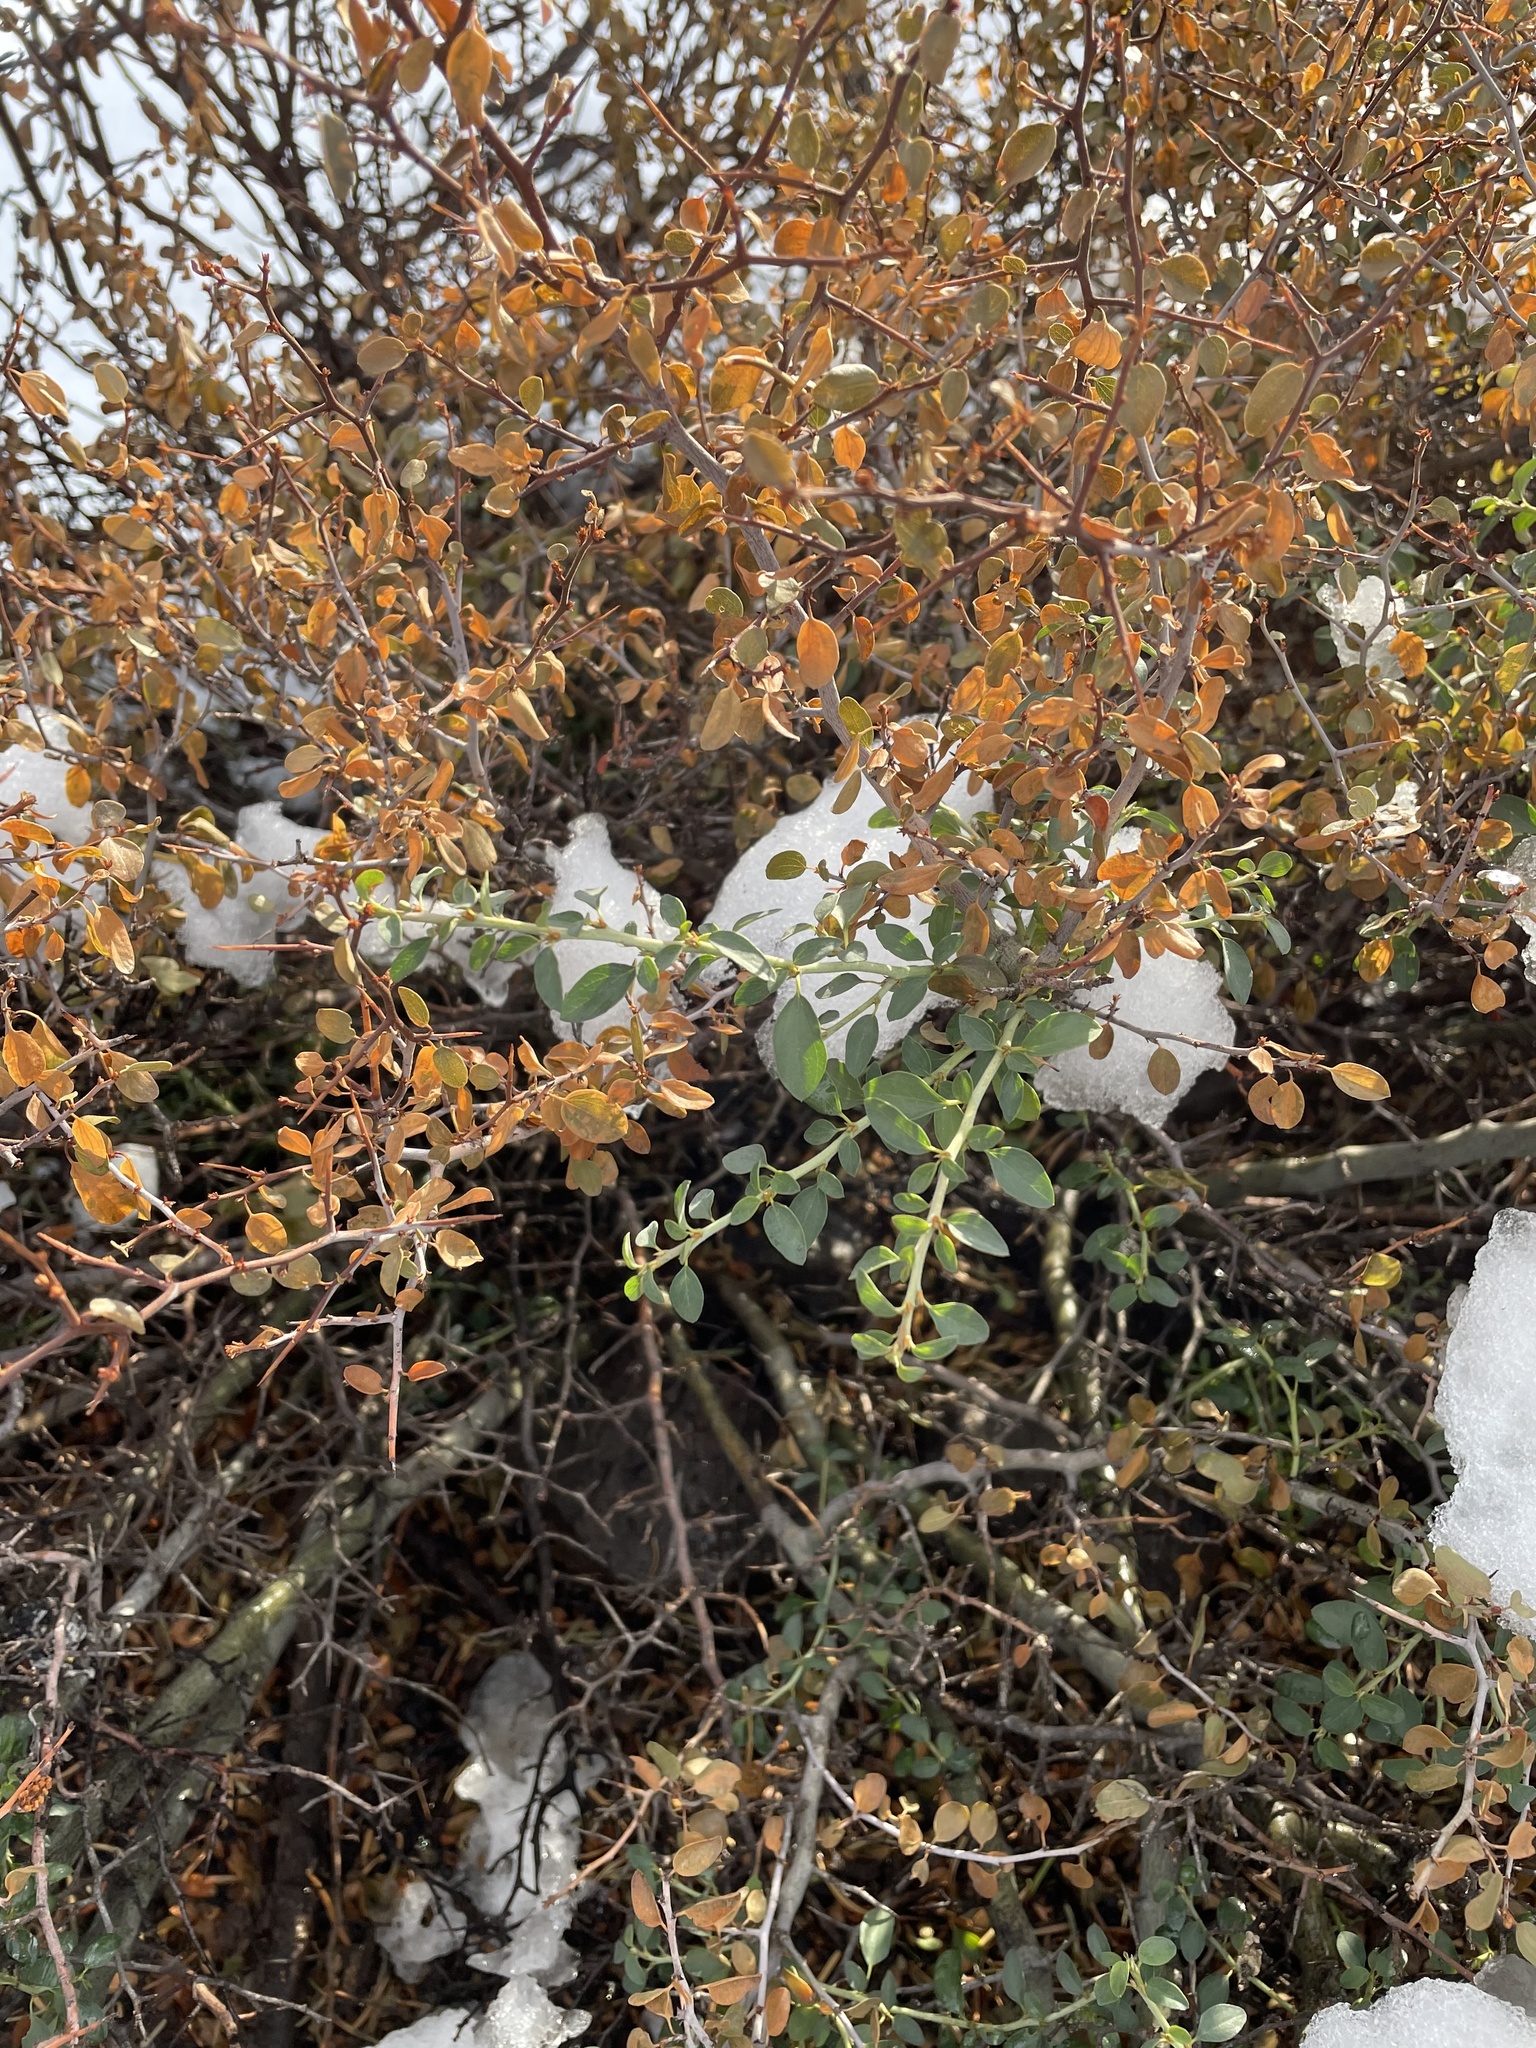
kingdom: Plantae
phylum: Tracheophyta
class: Magnoliopsida
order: Rosales
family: Rhamnaceae
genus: Ceanothus
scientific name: Ceanothus cordulatus
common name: Mountain whitethorn
